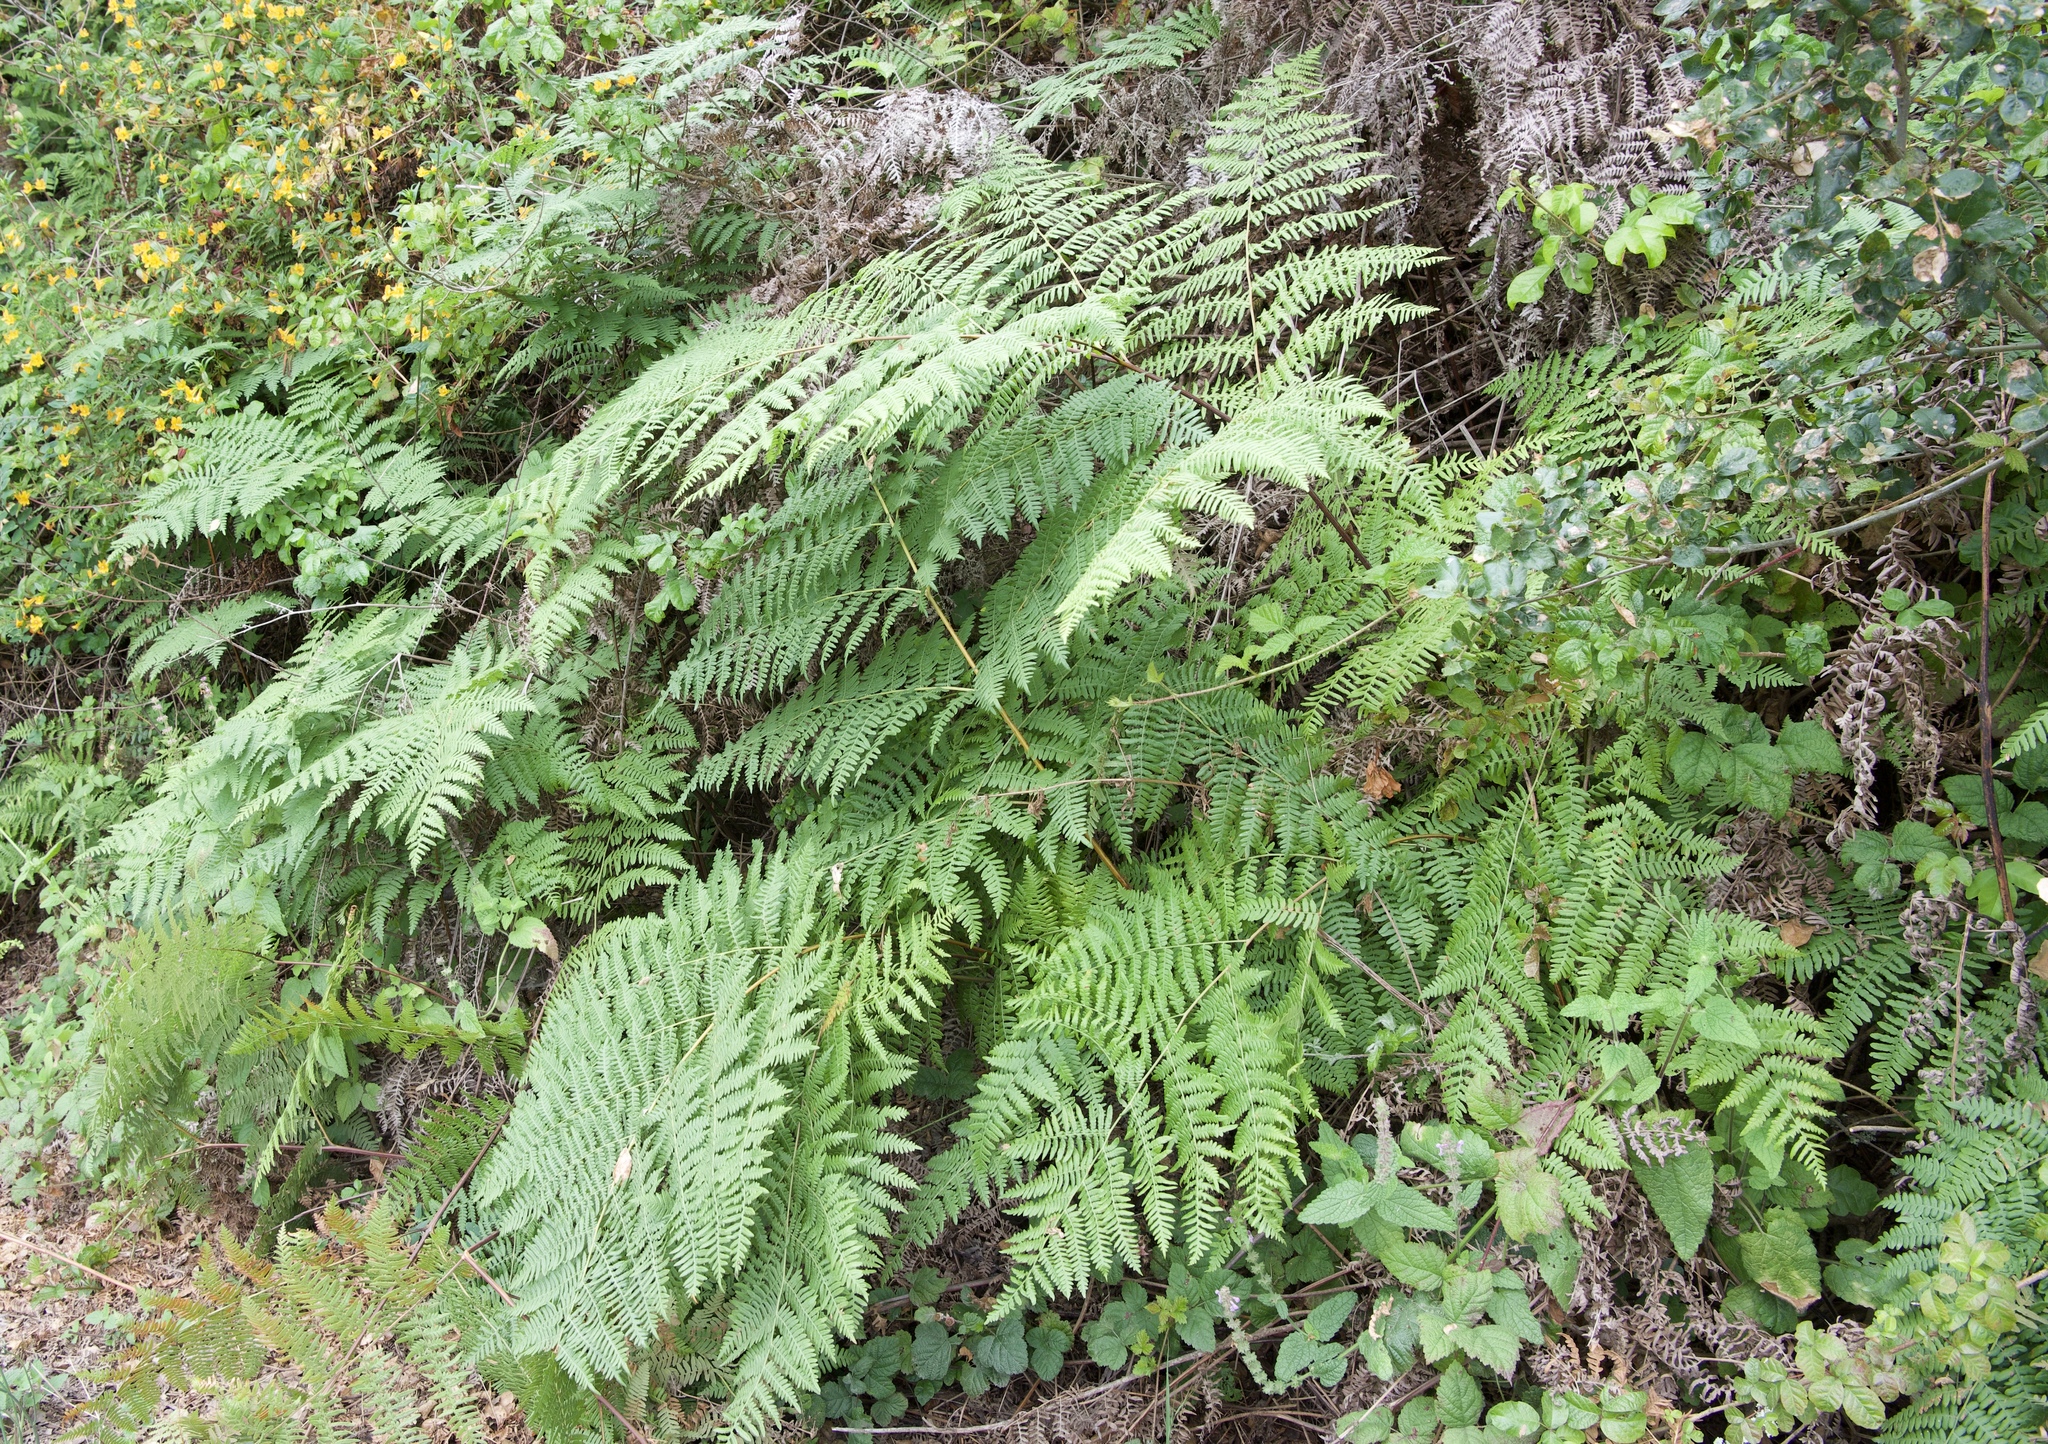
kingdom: Plantae
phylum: Tracheophyta
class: Polypodiopsida
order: Polypodiales
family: Dennstaedtiaceae
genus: Pteridium
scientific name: Pteridium aquilinum
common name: Bracken
